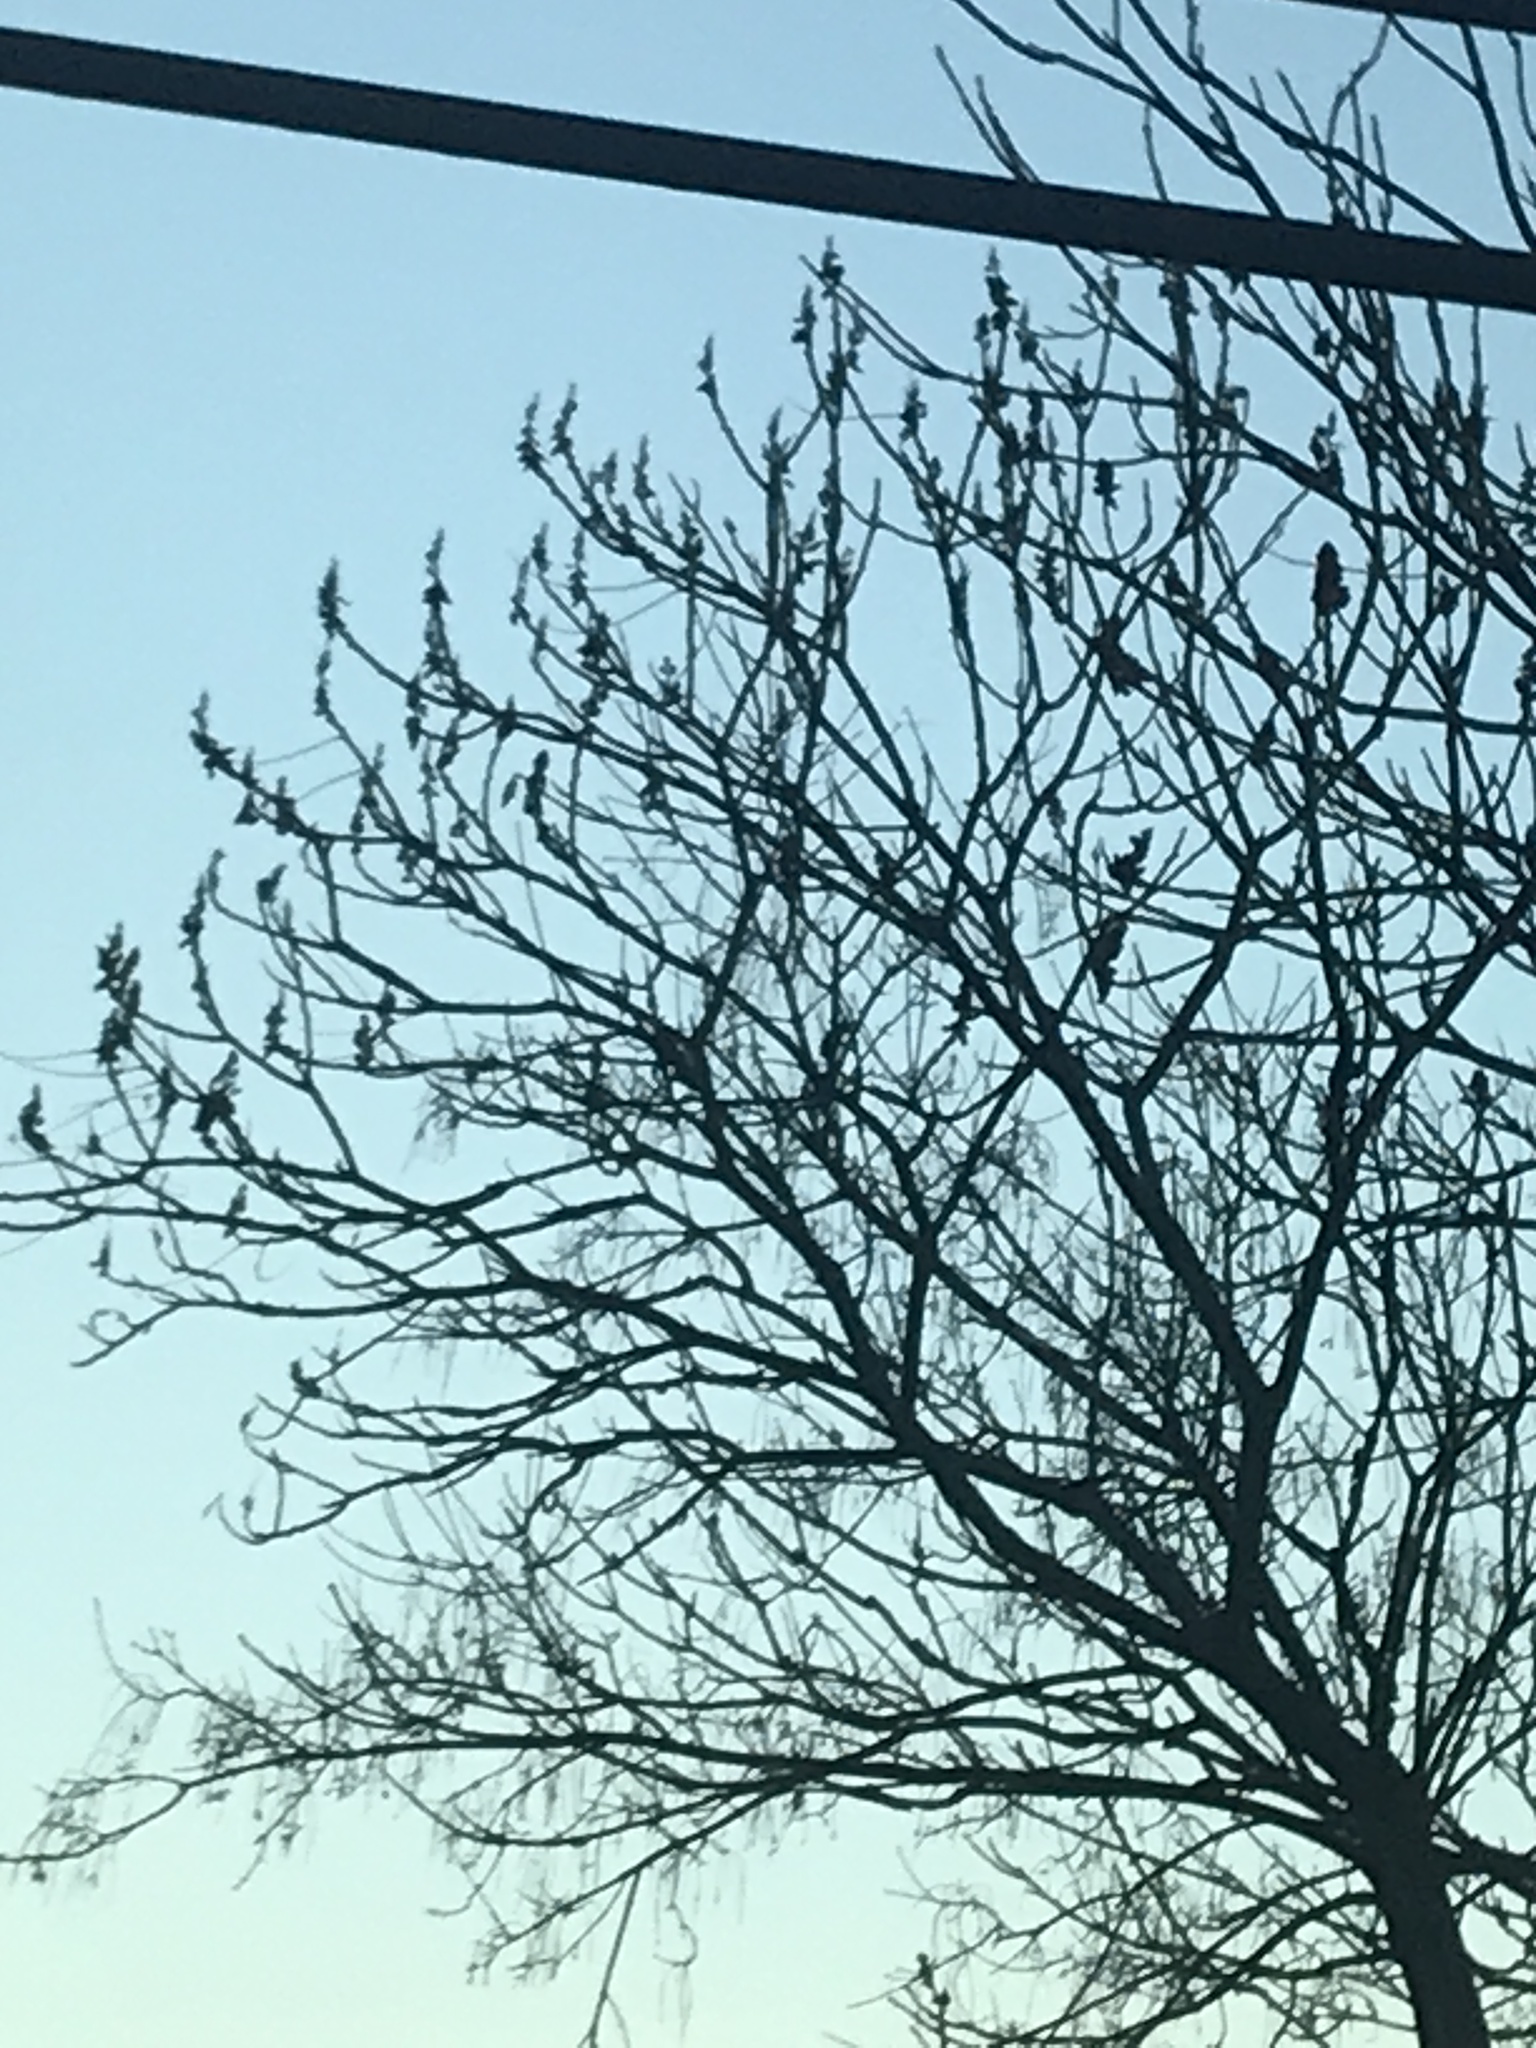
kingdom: Plantae
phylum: Tracheophyta
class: Magnoliopsida
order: Sapindales
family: Anacardiaceae
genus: Rhus
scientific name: Rhus typhina
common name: Staghorn sumac
